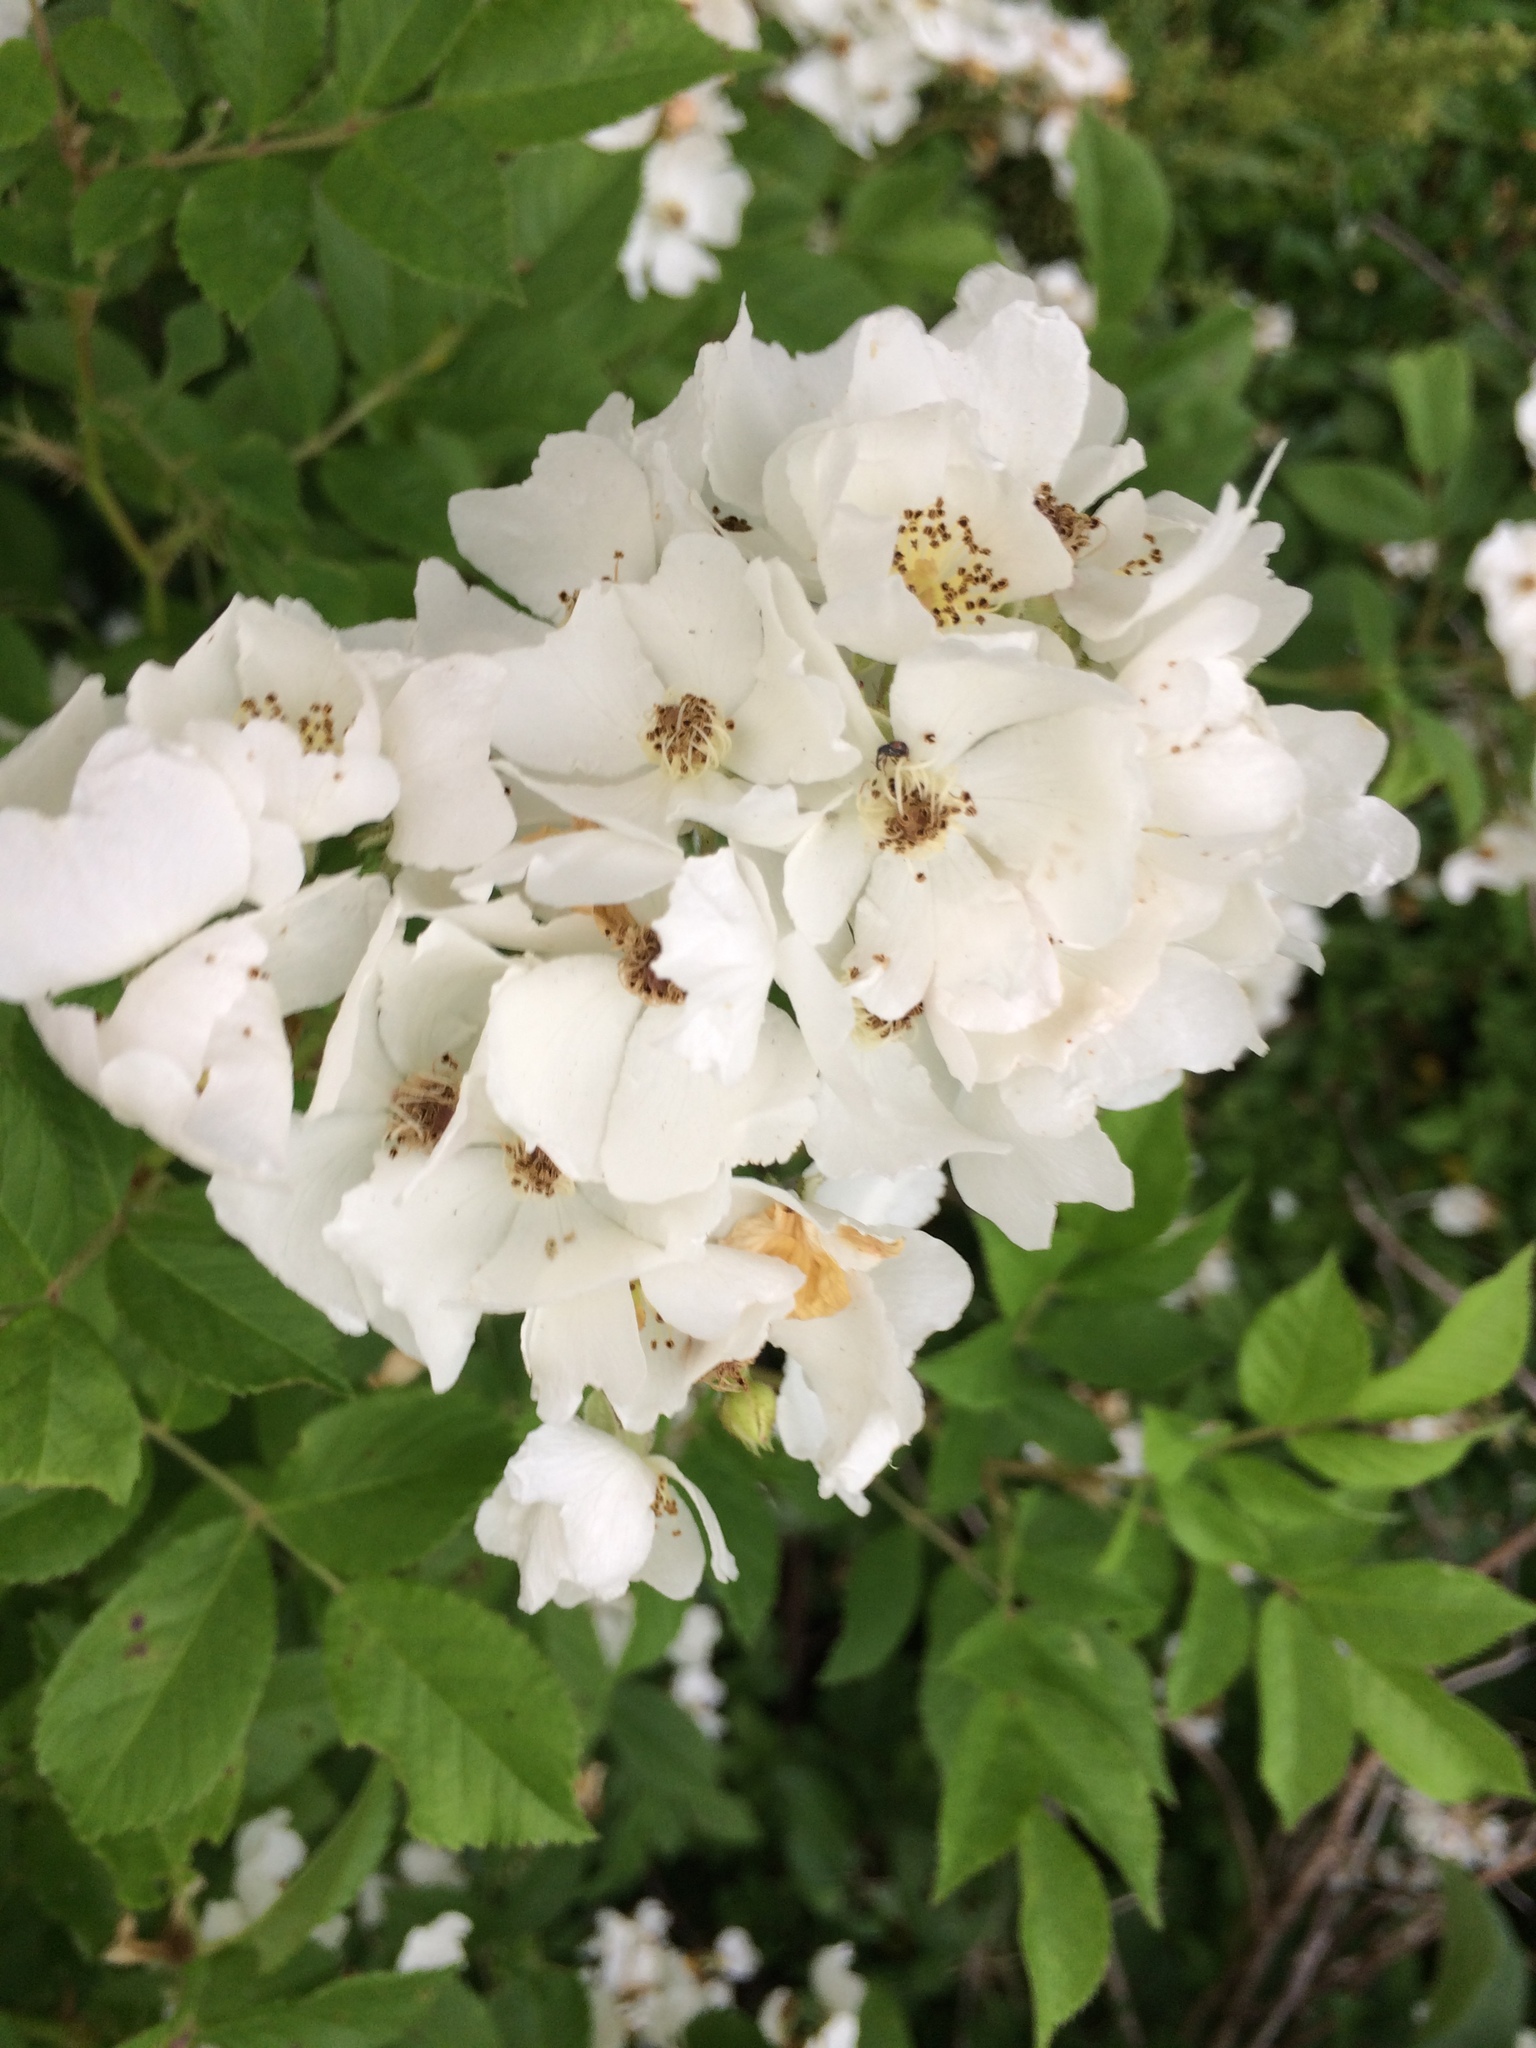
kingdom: Plantae
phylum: Tracheophyta
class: Magnoliopsida
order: Rosales
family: Rosaceae
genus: Rosa
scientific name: Rosa multiflora
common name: Multiflora rose
